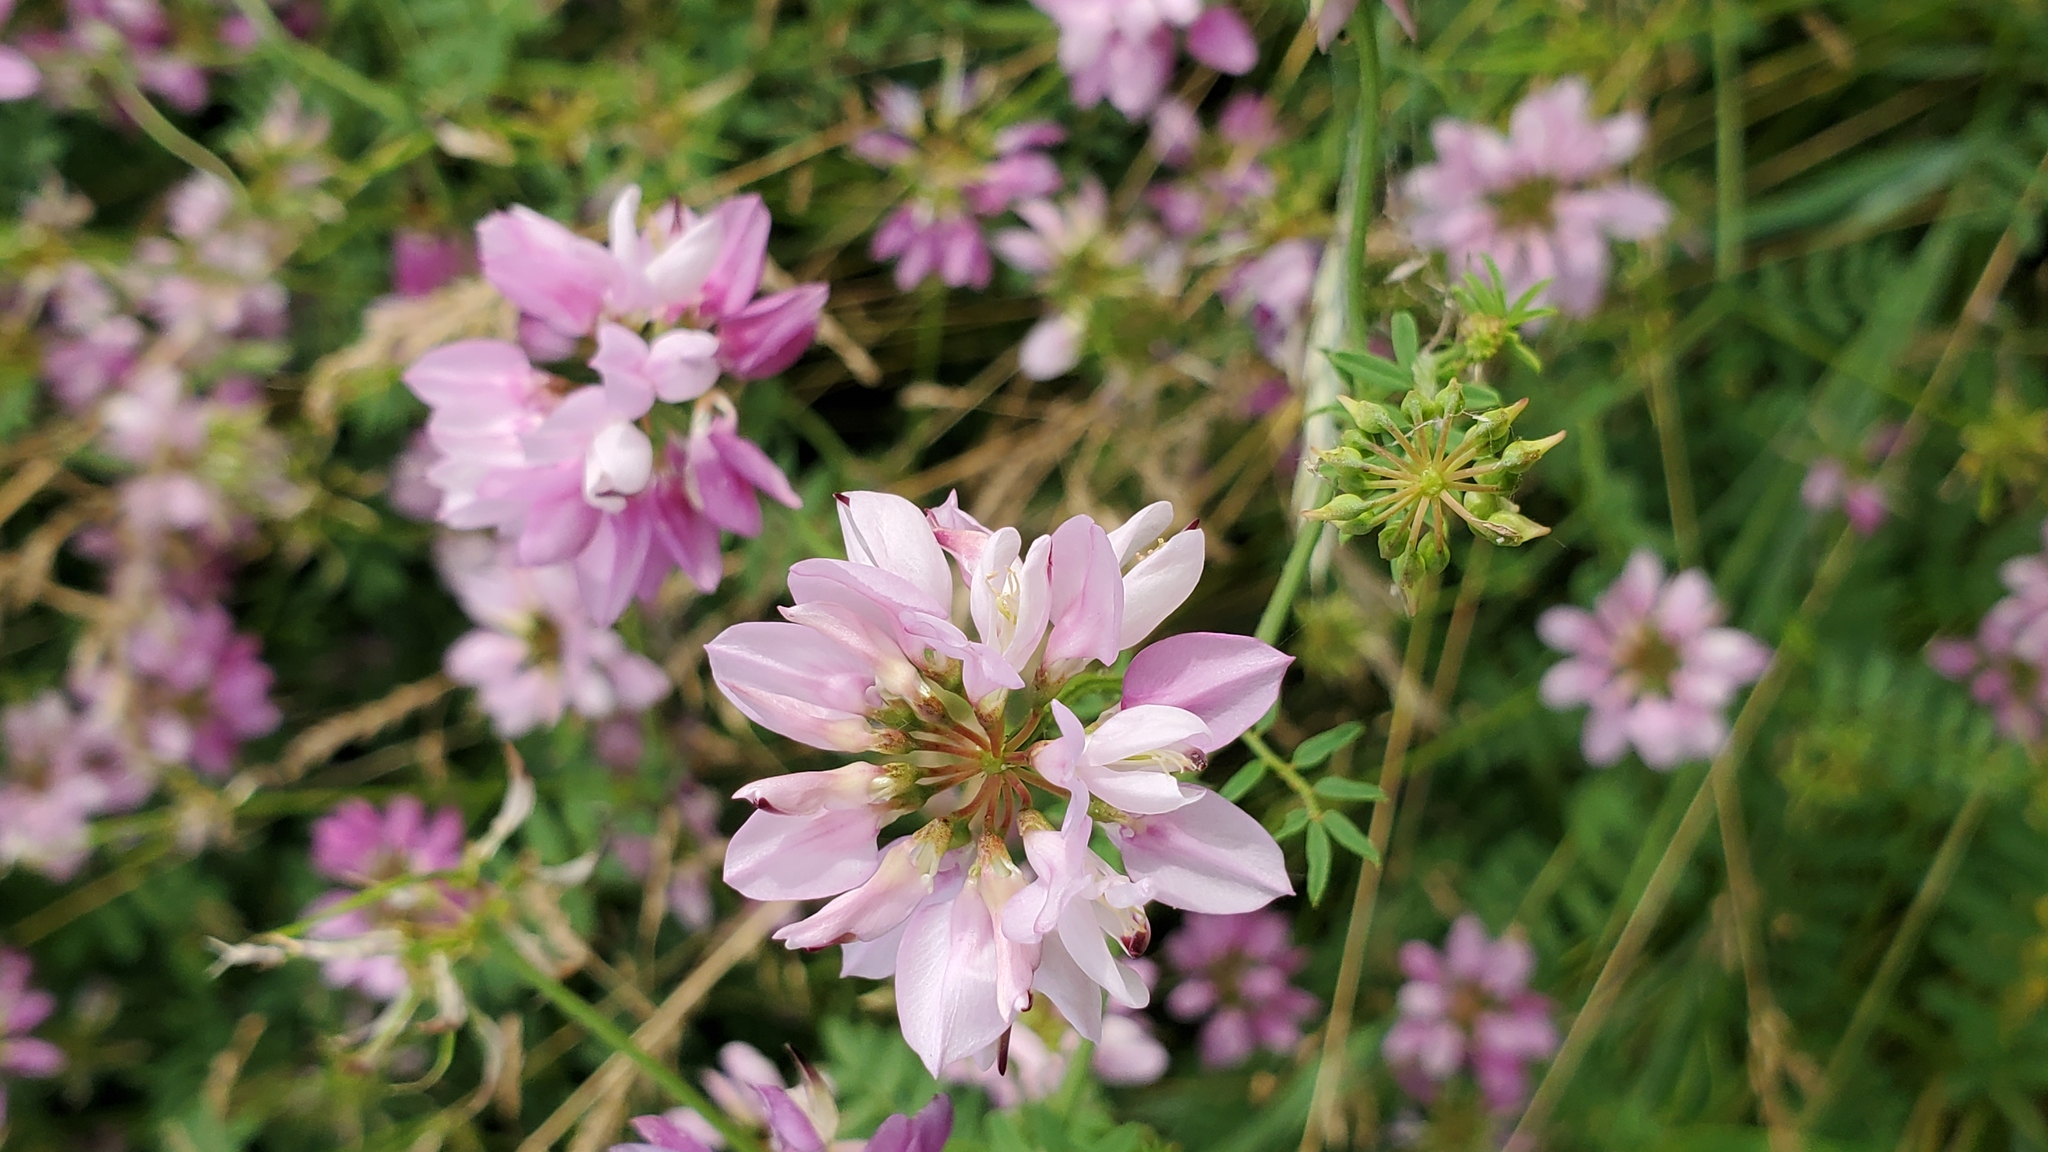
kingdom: Plantae
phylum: Tracheophyta
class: Magnoliopsida
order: Fabales
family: Fabaceae
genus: Coronilla
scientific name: Coronilla varia
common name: Crownvetch
